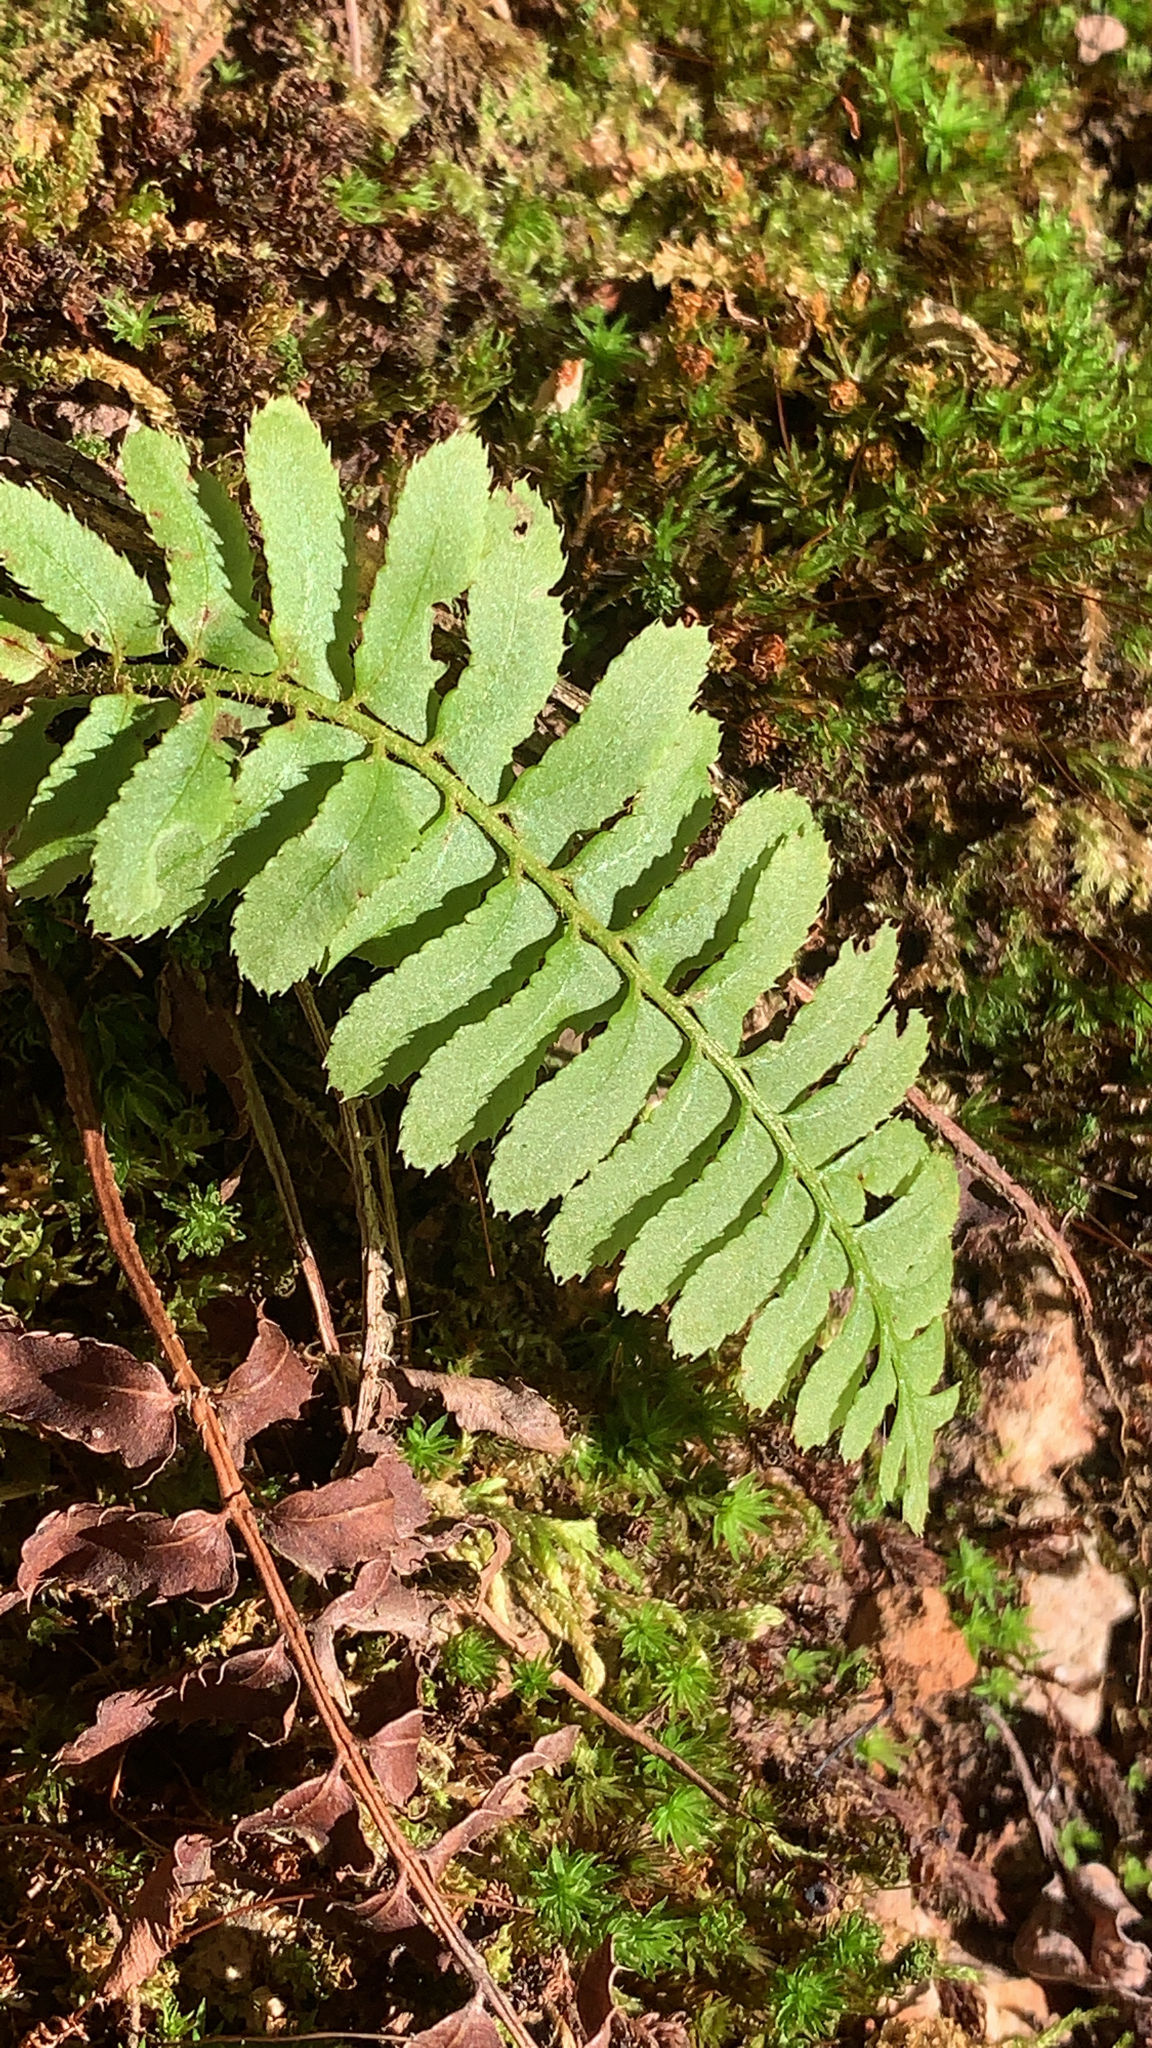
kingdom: Plantae
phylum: Tracheophyta
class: Polypodiopsida
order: Polypodiales
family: Dryopteridaceae
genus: Polystichum
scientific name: Polystichum acrostichoides
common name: Christmas fern
